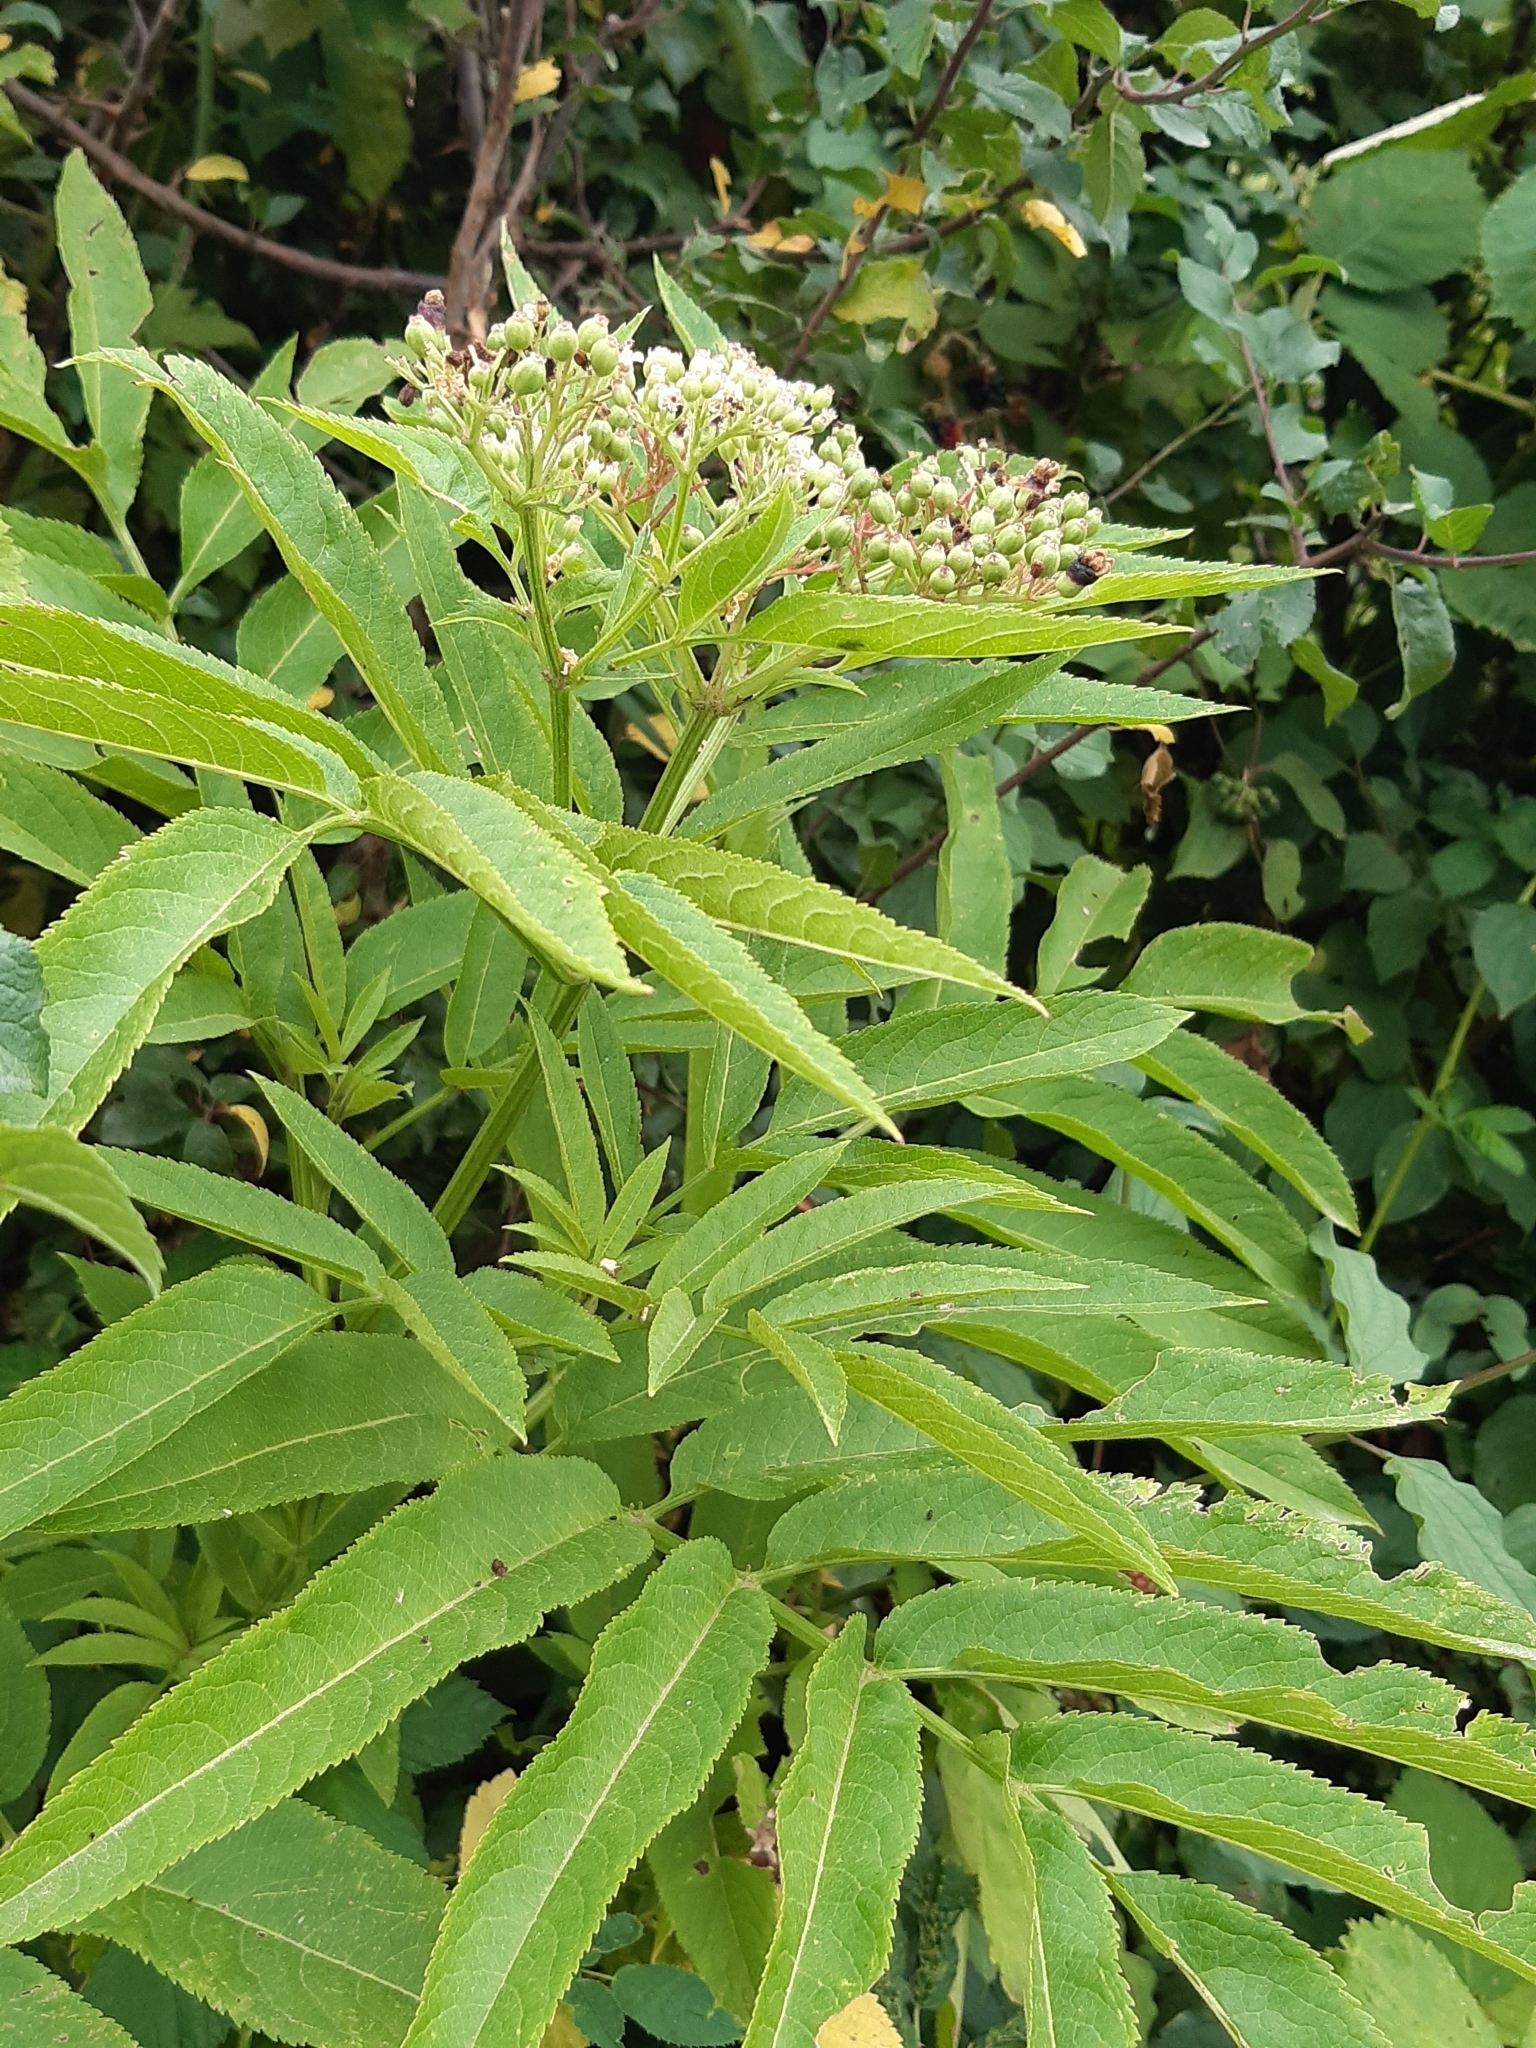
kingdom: Plantae
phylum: Tracheophyta
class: Magnoliopsida
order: Dipsacales
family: Viburnaceae
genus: Sambucus
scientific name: Sambucus ebulus
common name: Dwarf elder
